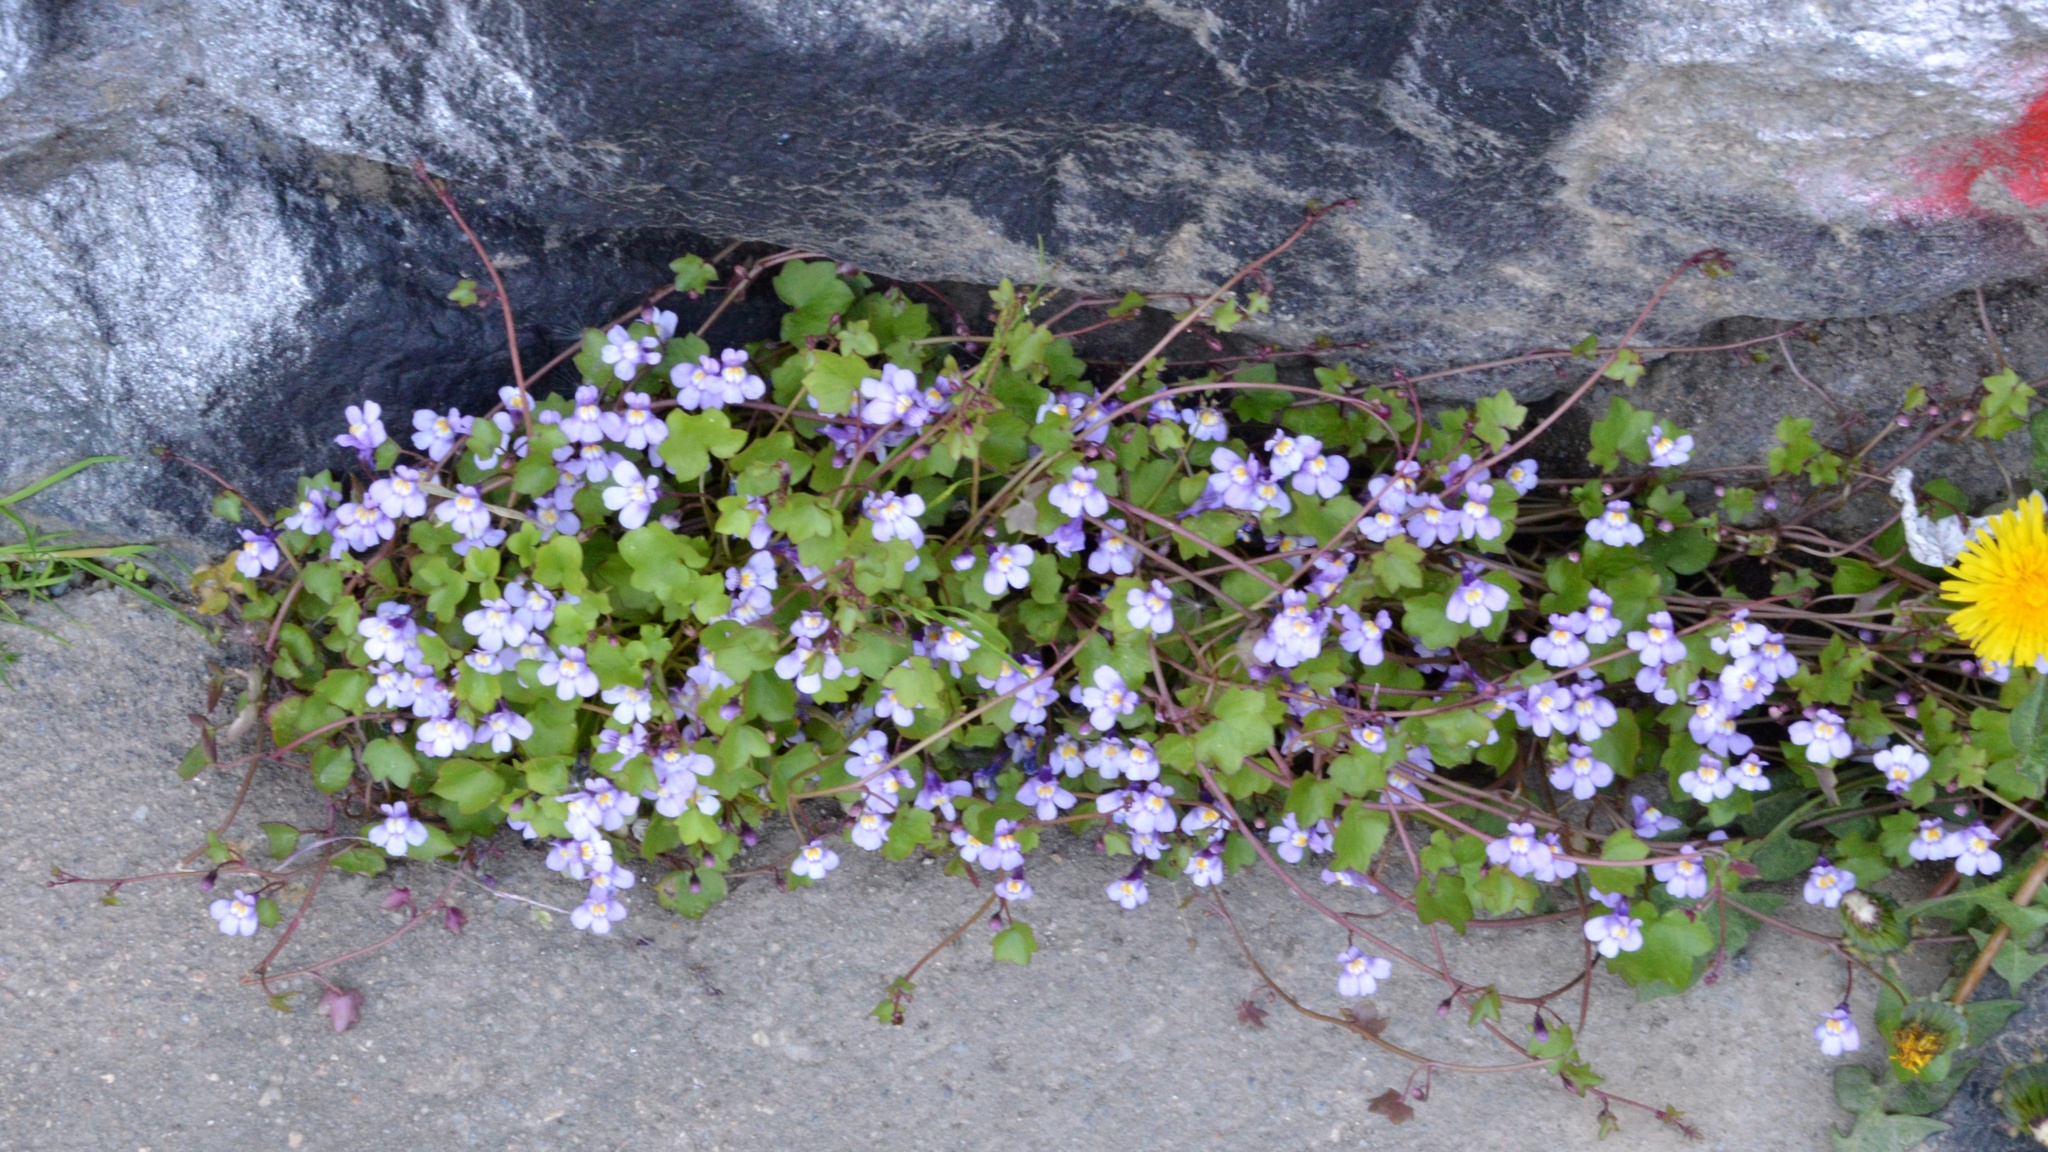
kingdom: Plantae
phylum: Tracheophyta
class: Magnoliopsida
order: Lamiales
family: Plantaginaceae
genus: Cymbalaria
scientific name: Cymbalaria muralis
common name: Ivy-leaved toadflax
